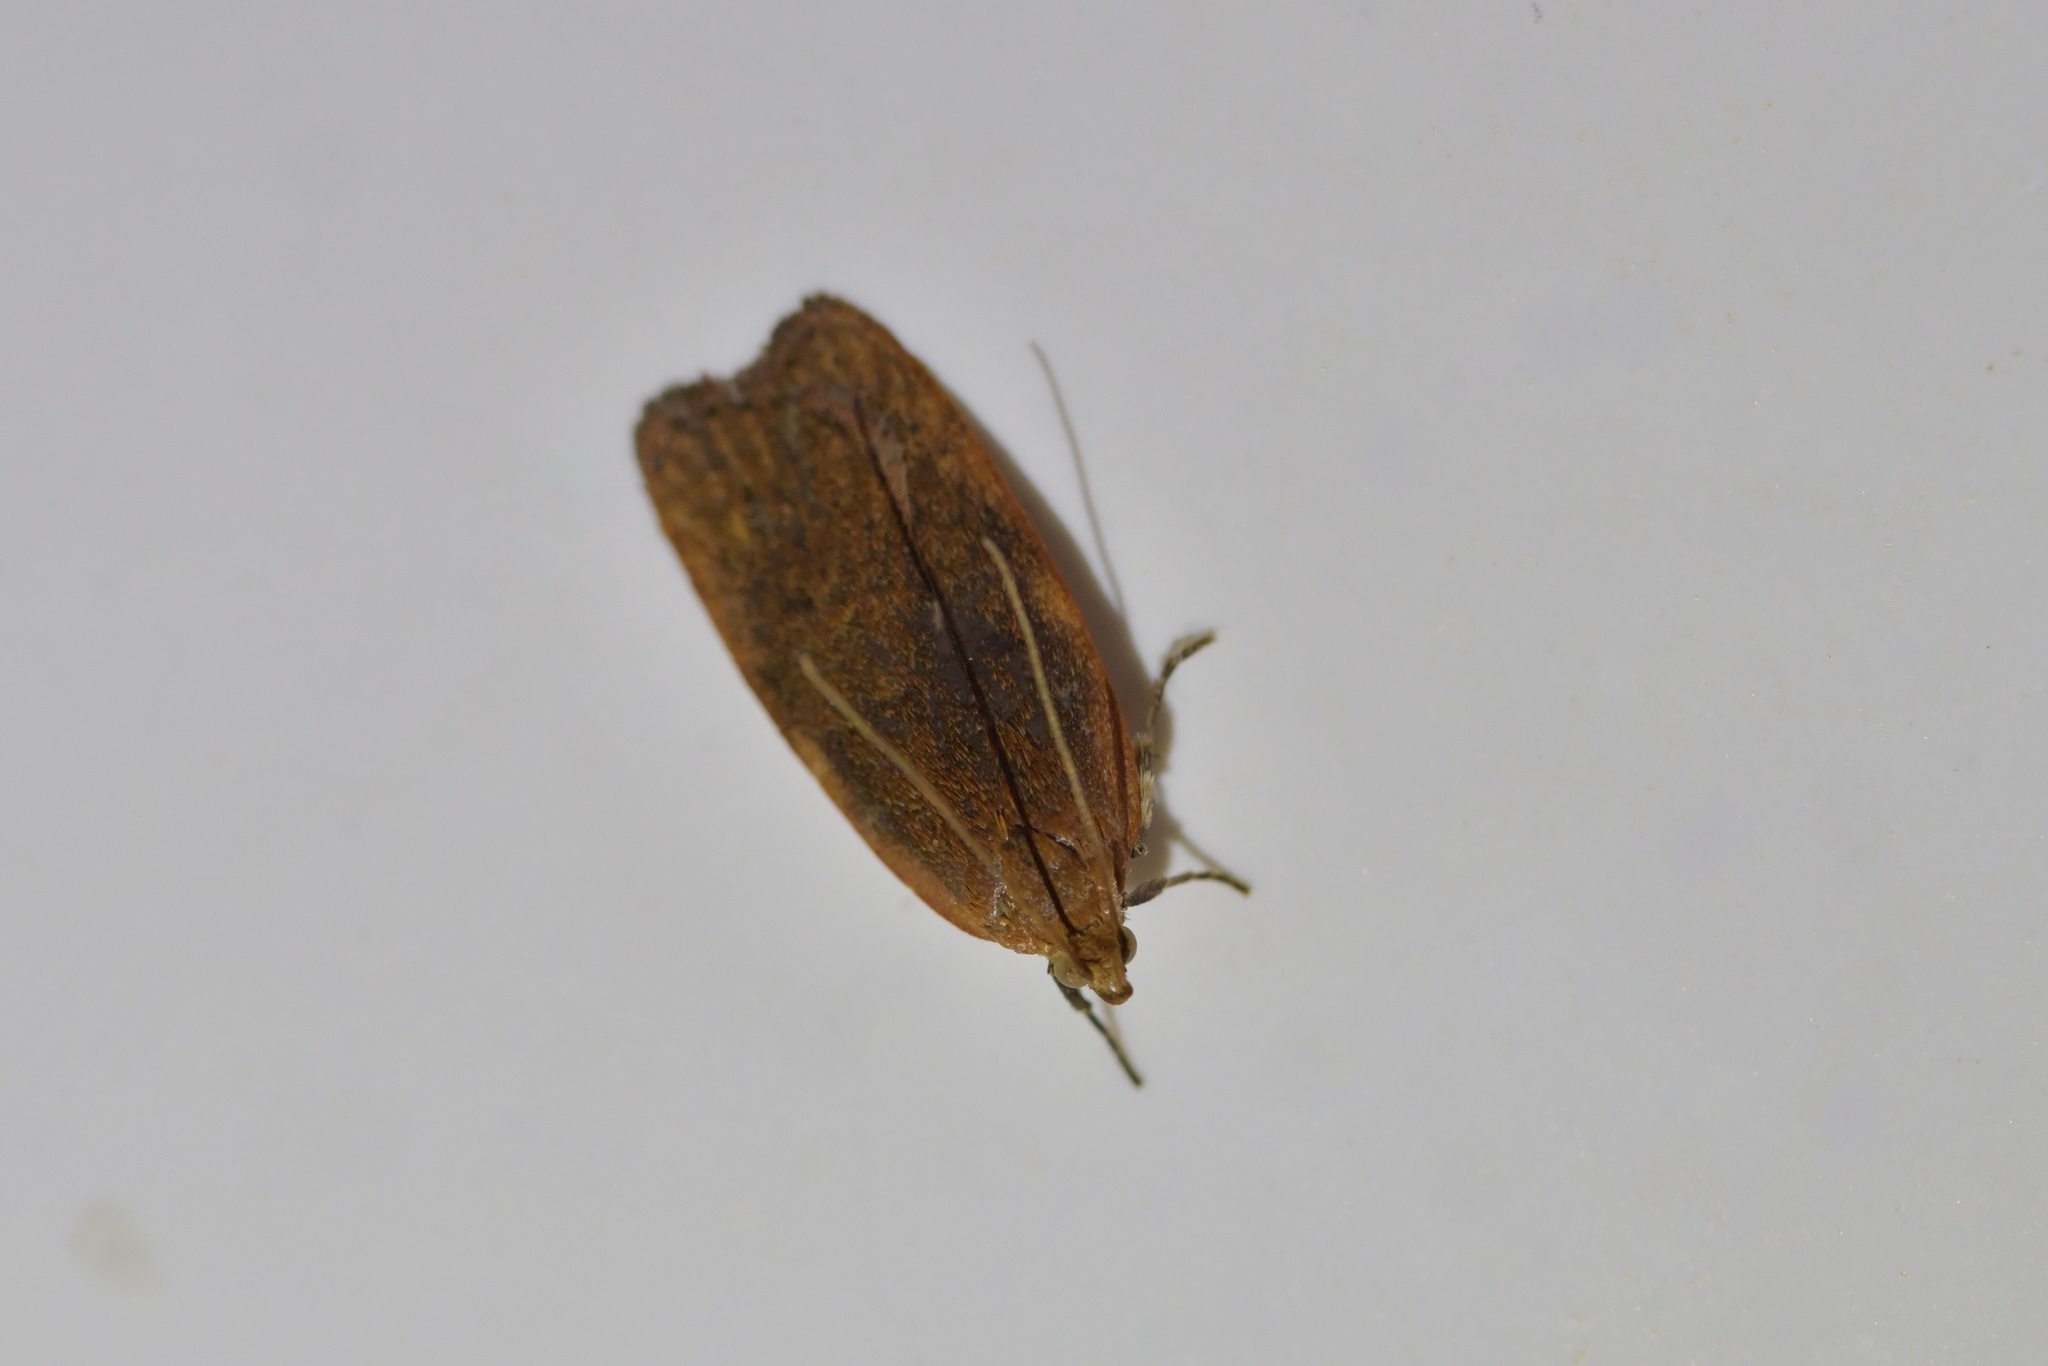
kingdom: Animalia
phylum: Arthropoda
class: Insecta
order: Lepidoptera
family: Depressariidae
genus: Phaeosaces
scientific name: Phaeosaces coarctatella
